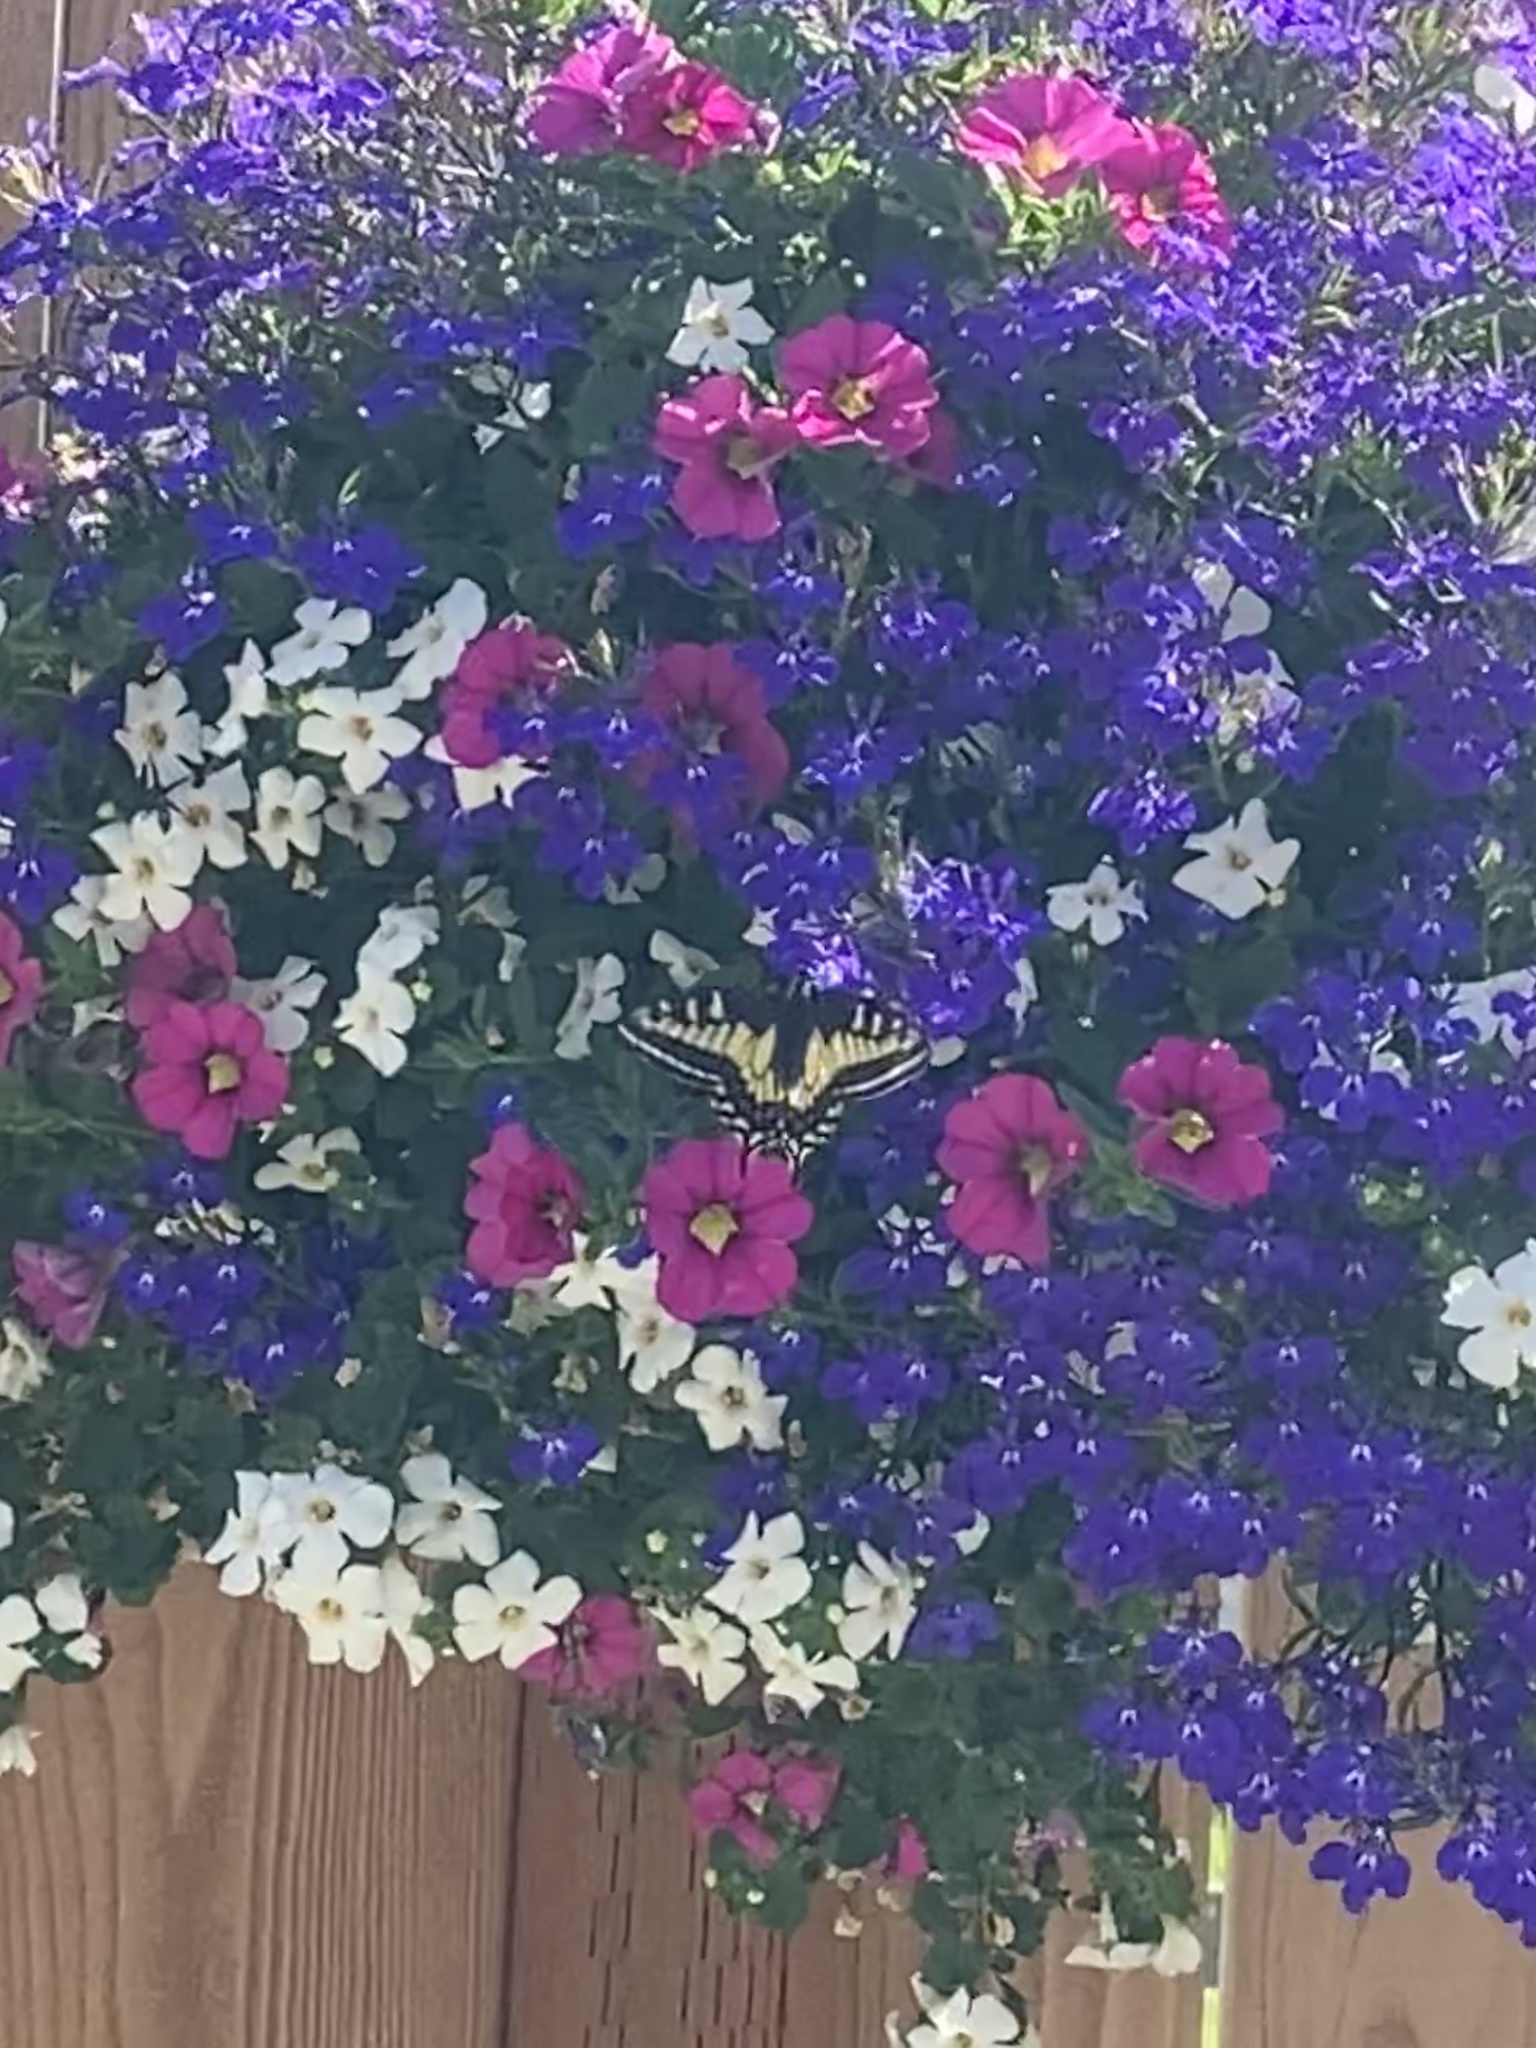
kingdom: Animalia
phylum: Arthropoda
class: Insecta
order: Lepidoptera
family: Papilionidae
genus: Papilio
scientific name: Papilio zelicaon
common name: Anise swallowtail
